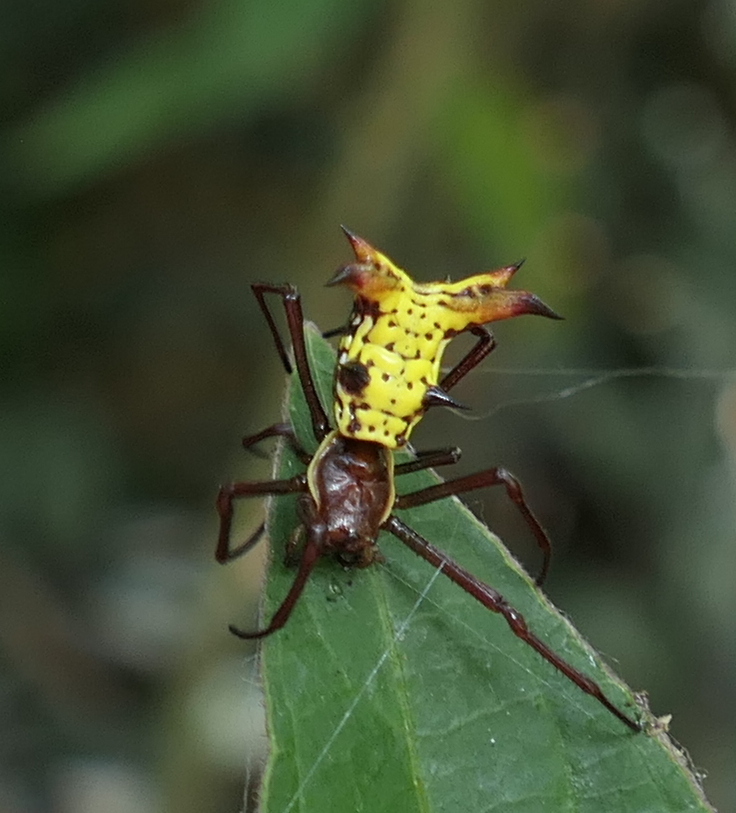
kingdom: Animalia
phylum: Arthropoda
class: Arachnida
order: Araneae
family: Araneidae
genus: Micrathena
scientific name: Micrathena fissispina
